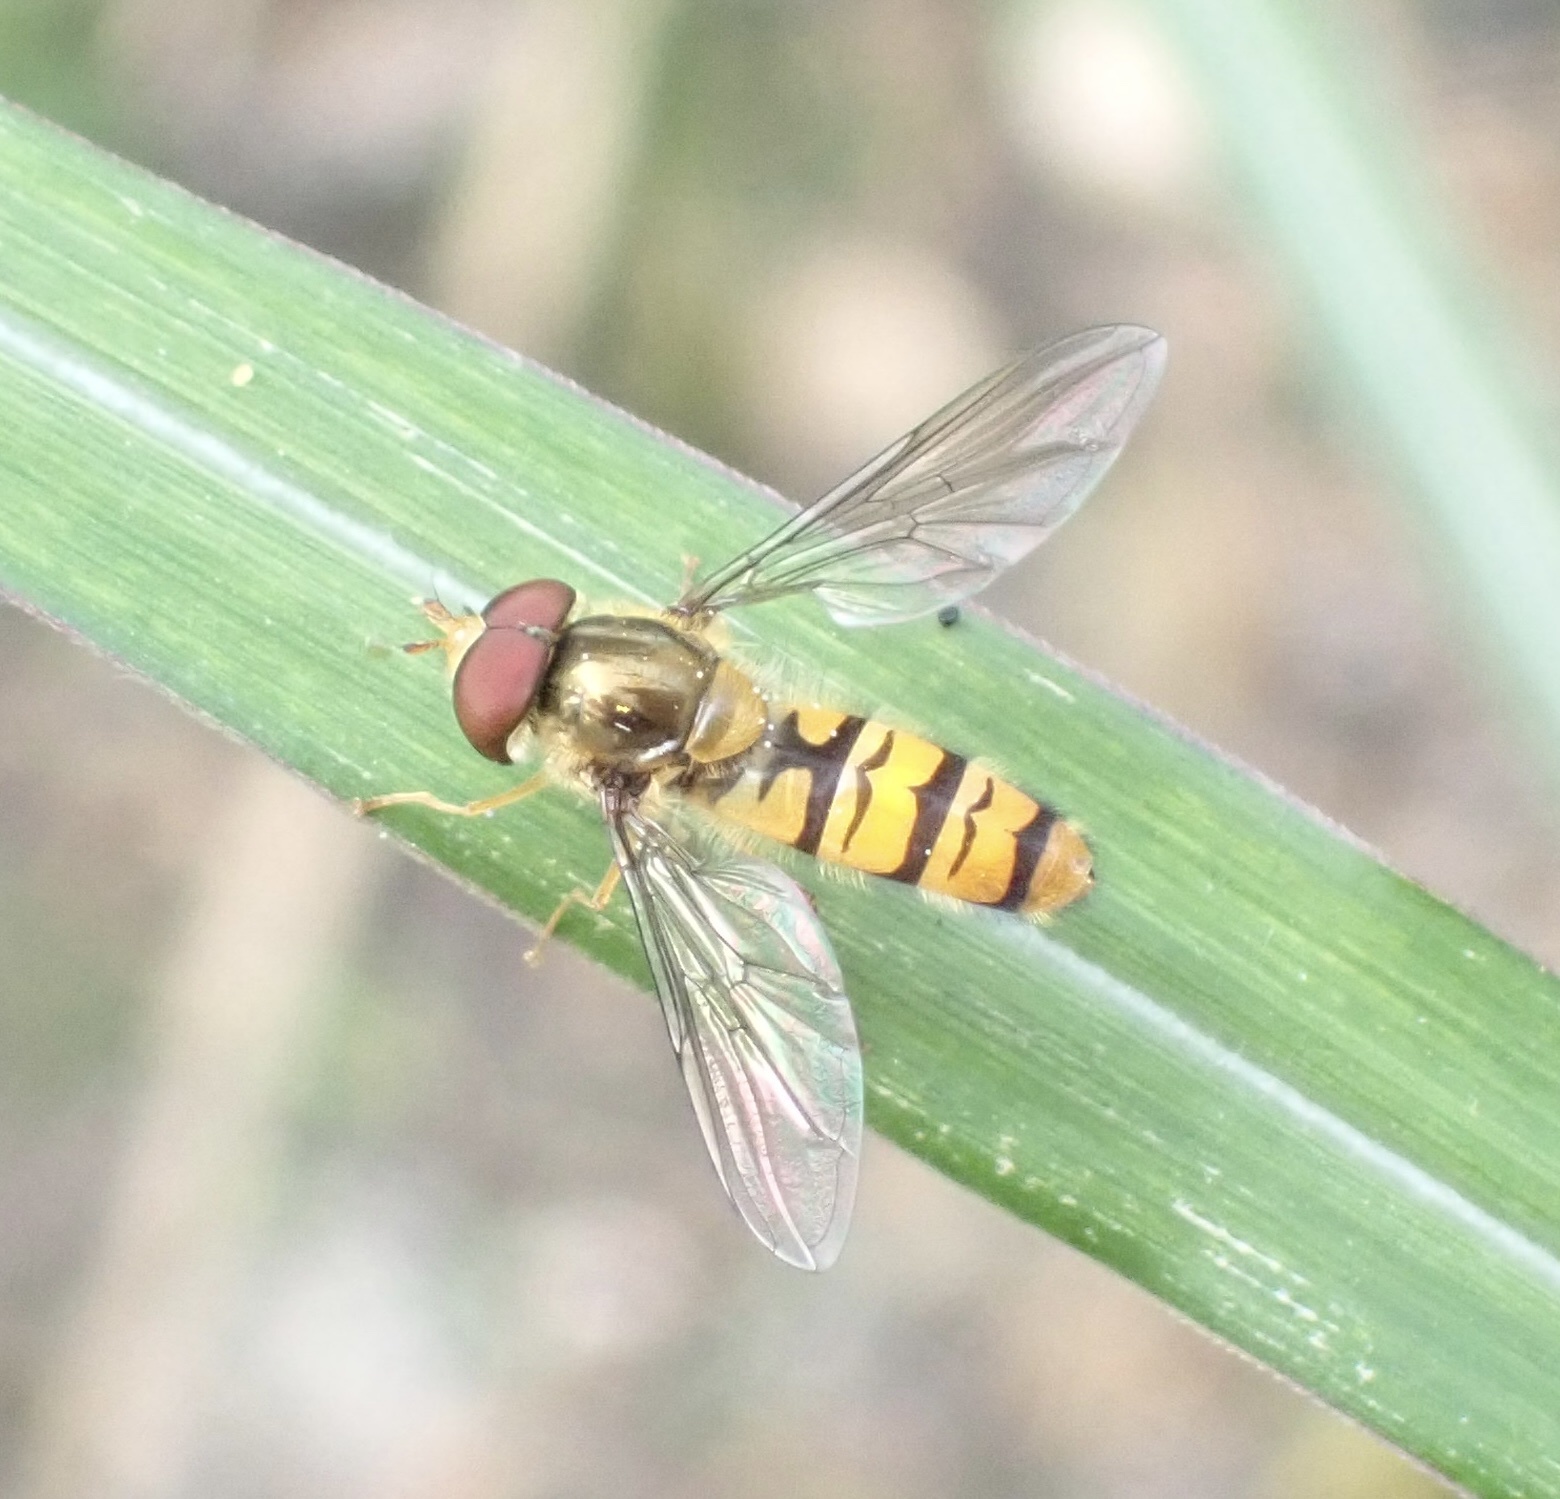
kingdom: Animalia
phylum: Arthropoda
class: Insecta
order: Diptera
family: Syrphidae
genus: Episyrphus
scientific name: Episyrphus balteatus
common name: Marmalade hoverfly
